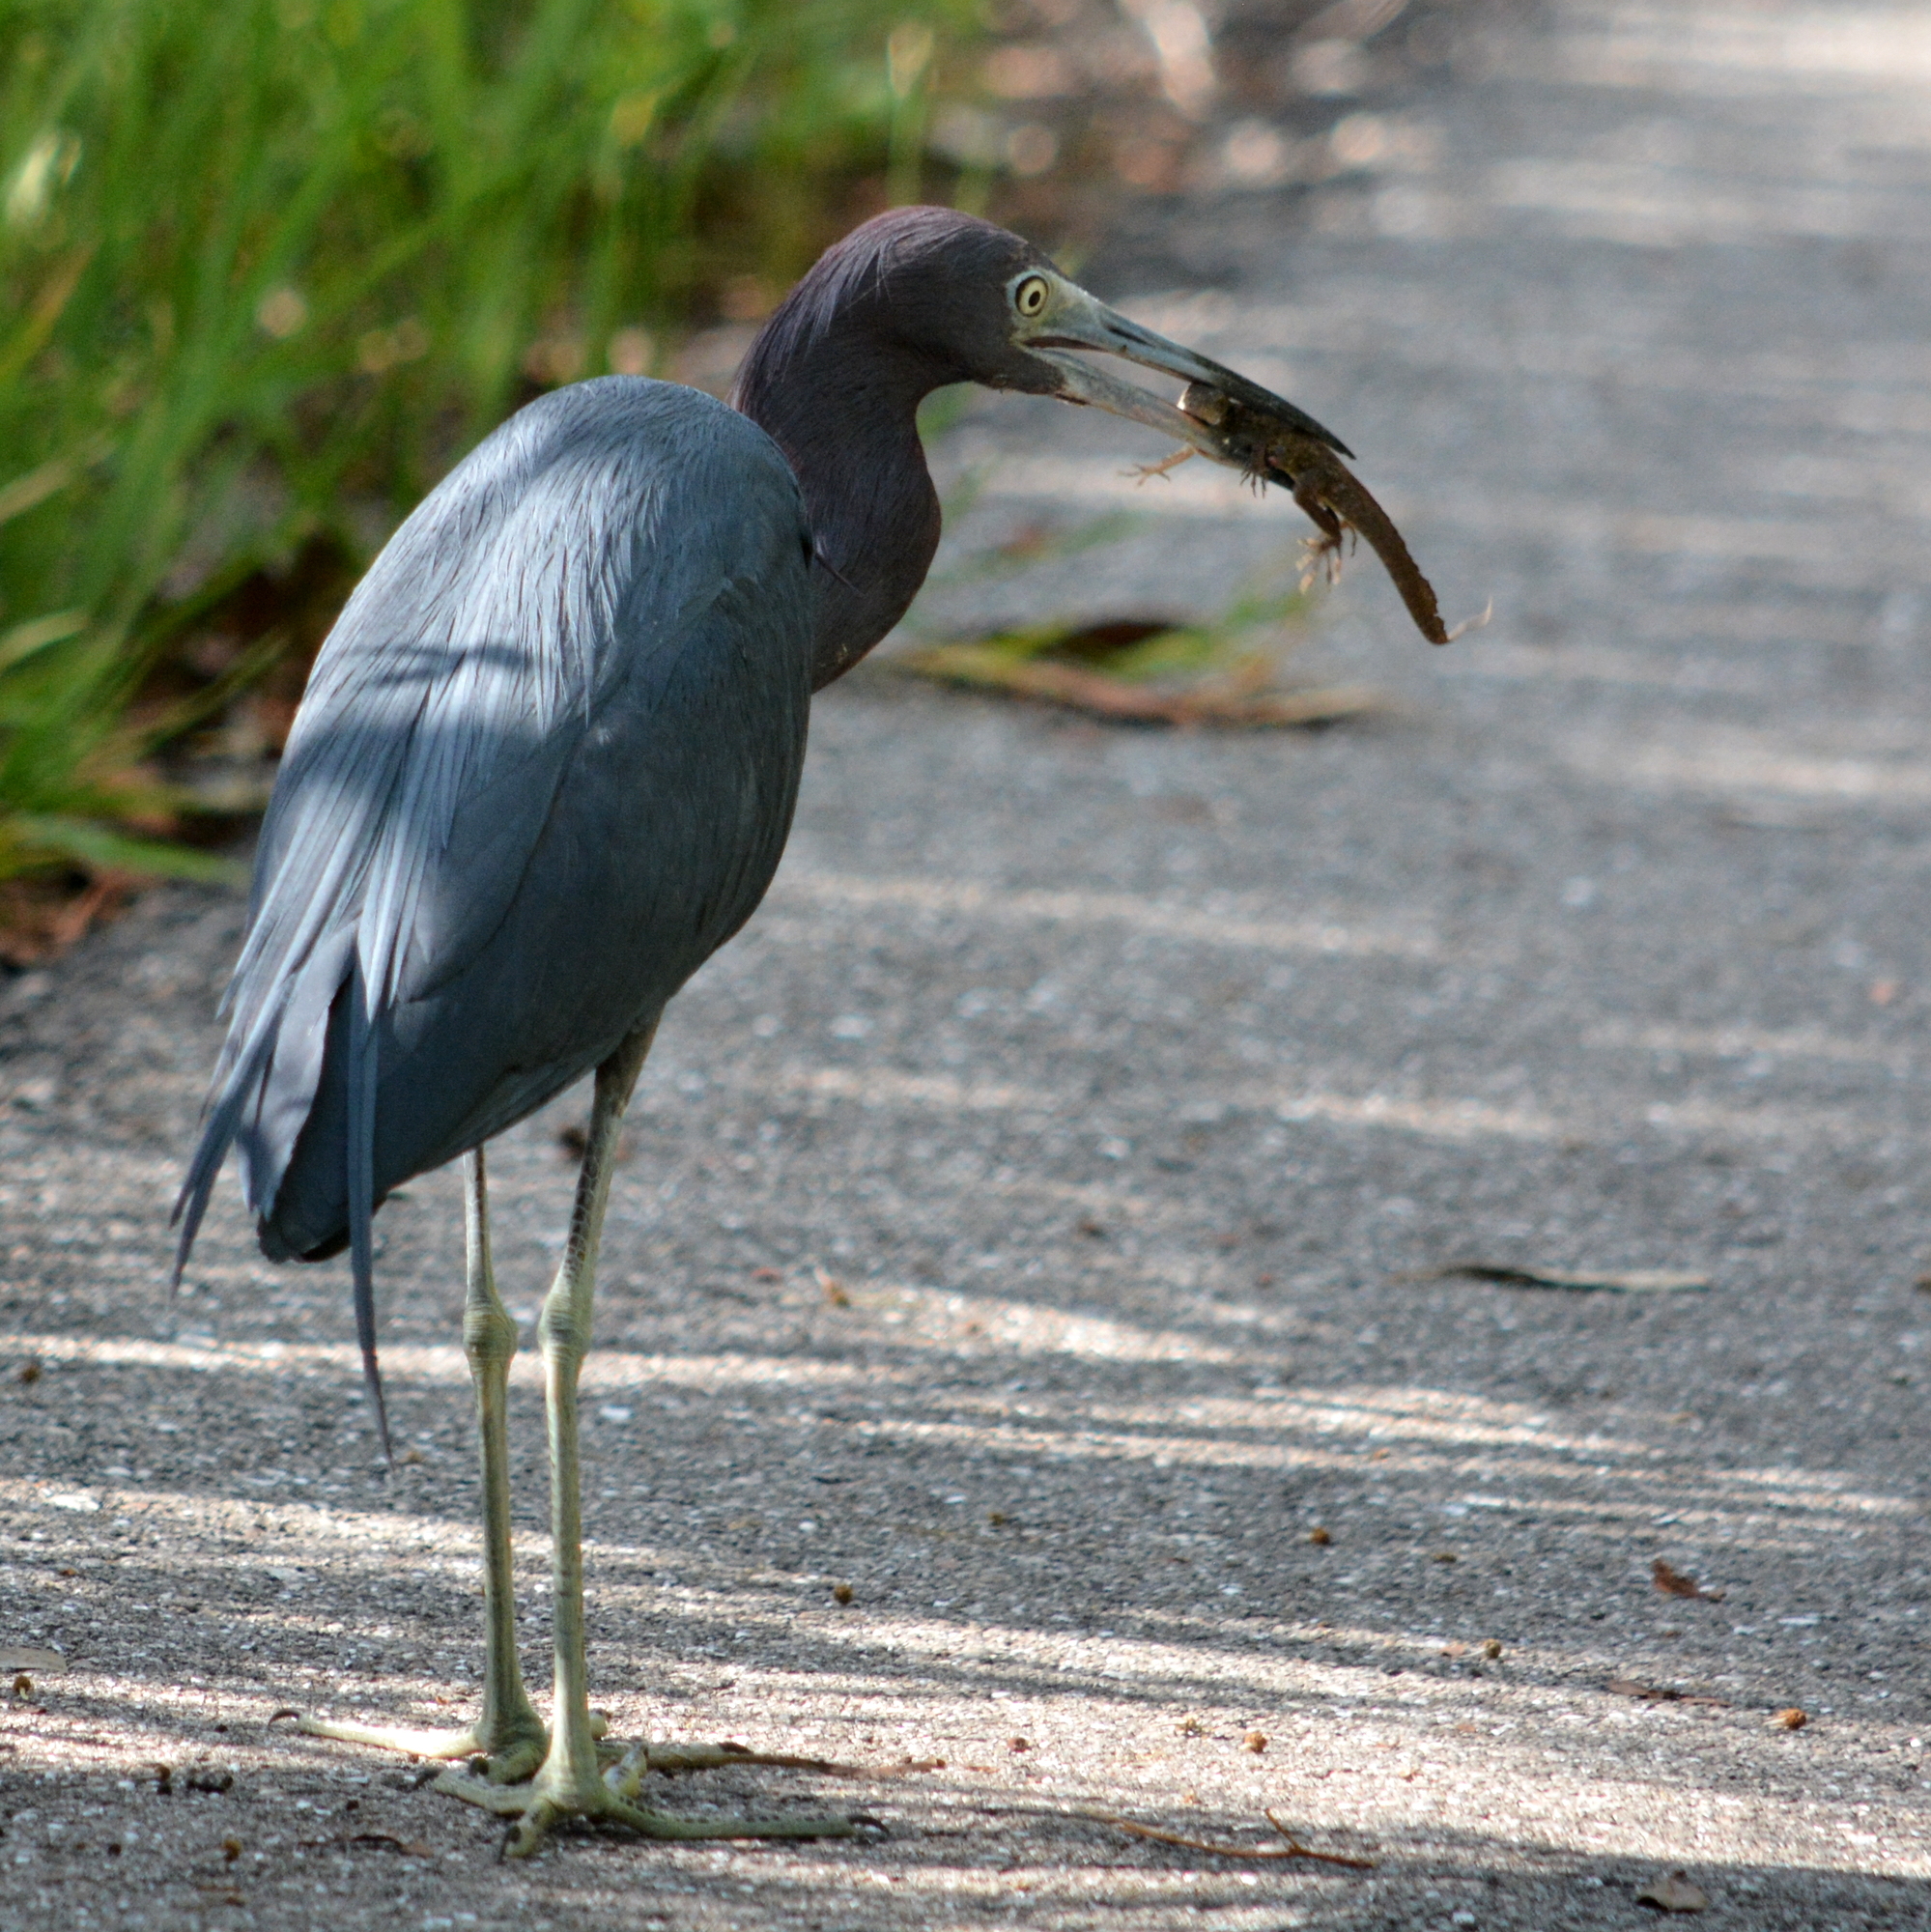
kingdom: Animalia
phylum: Chordata
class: Aves
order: Pelecaniformes
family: Ardeidae
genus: Egretta
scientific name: Egretta caerulea
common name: Little blue heron
